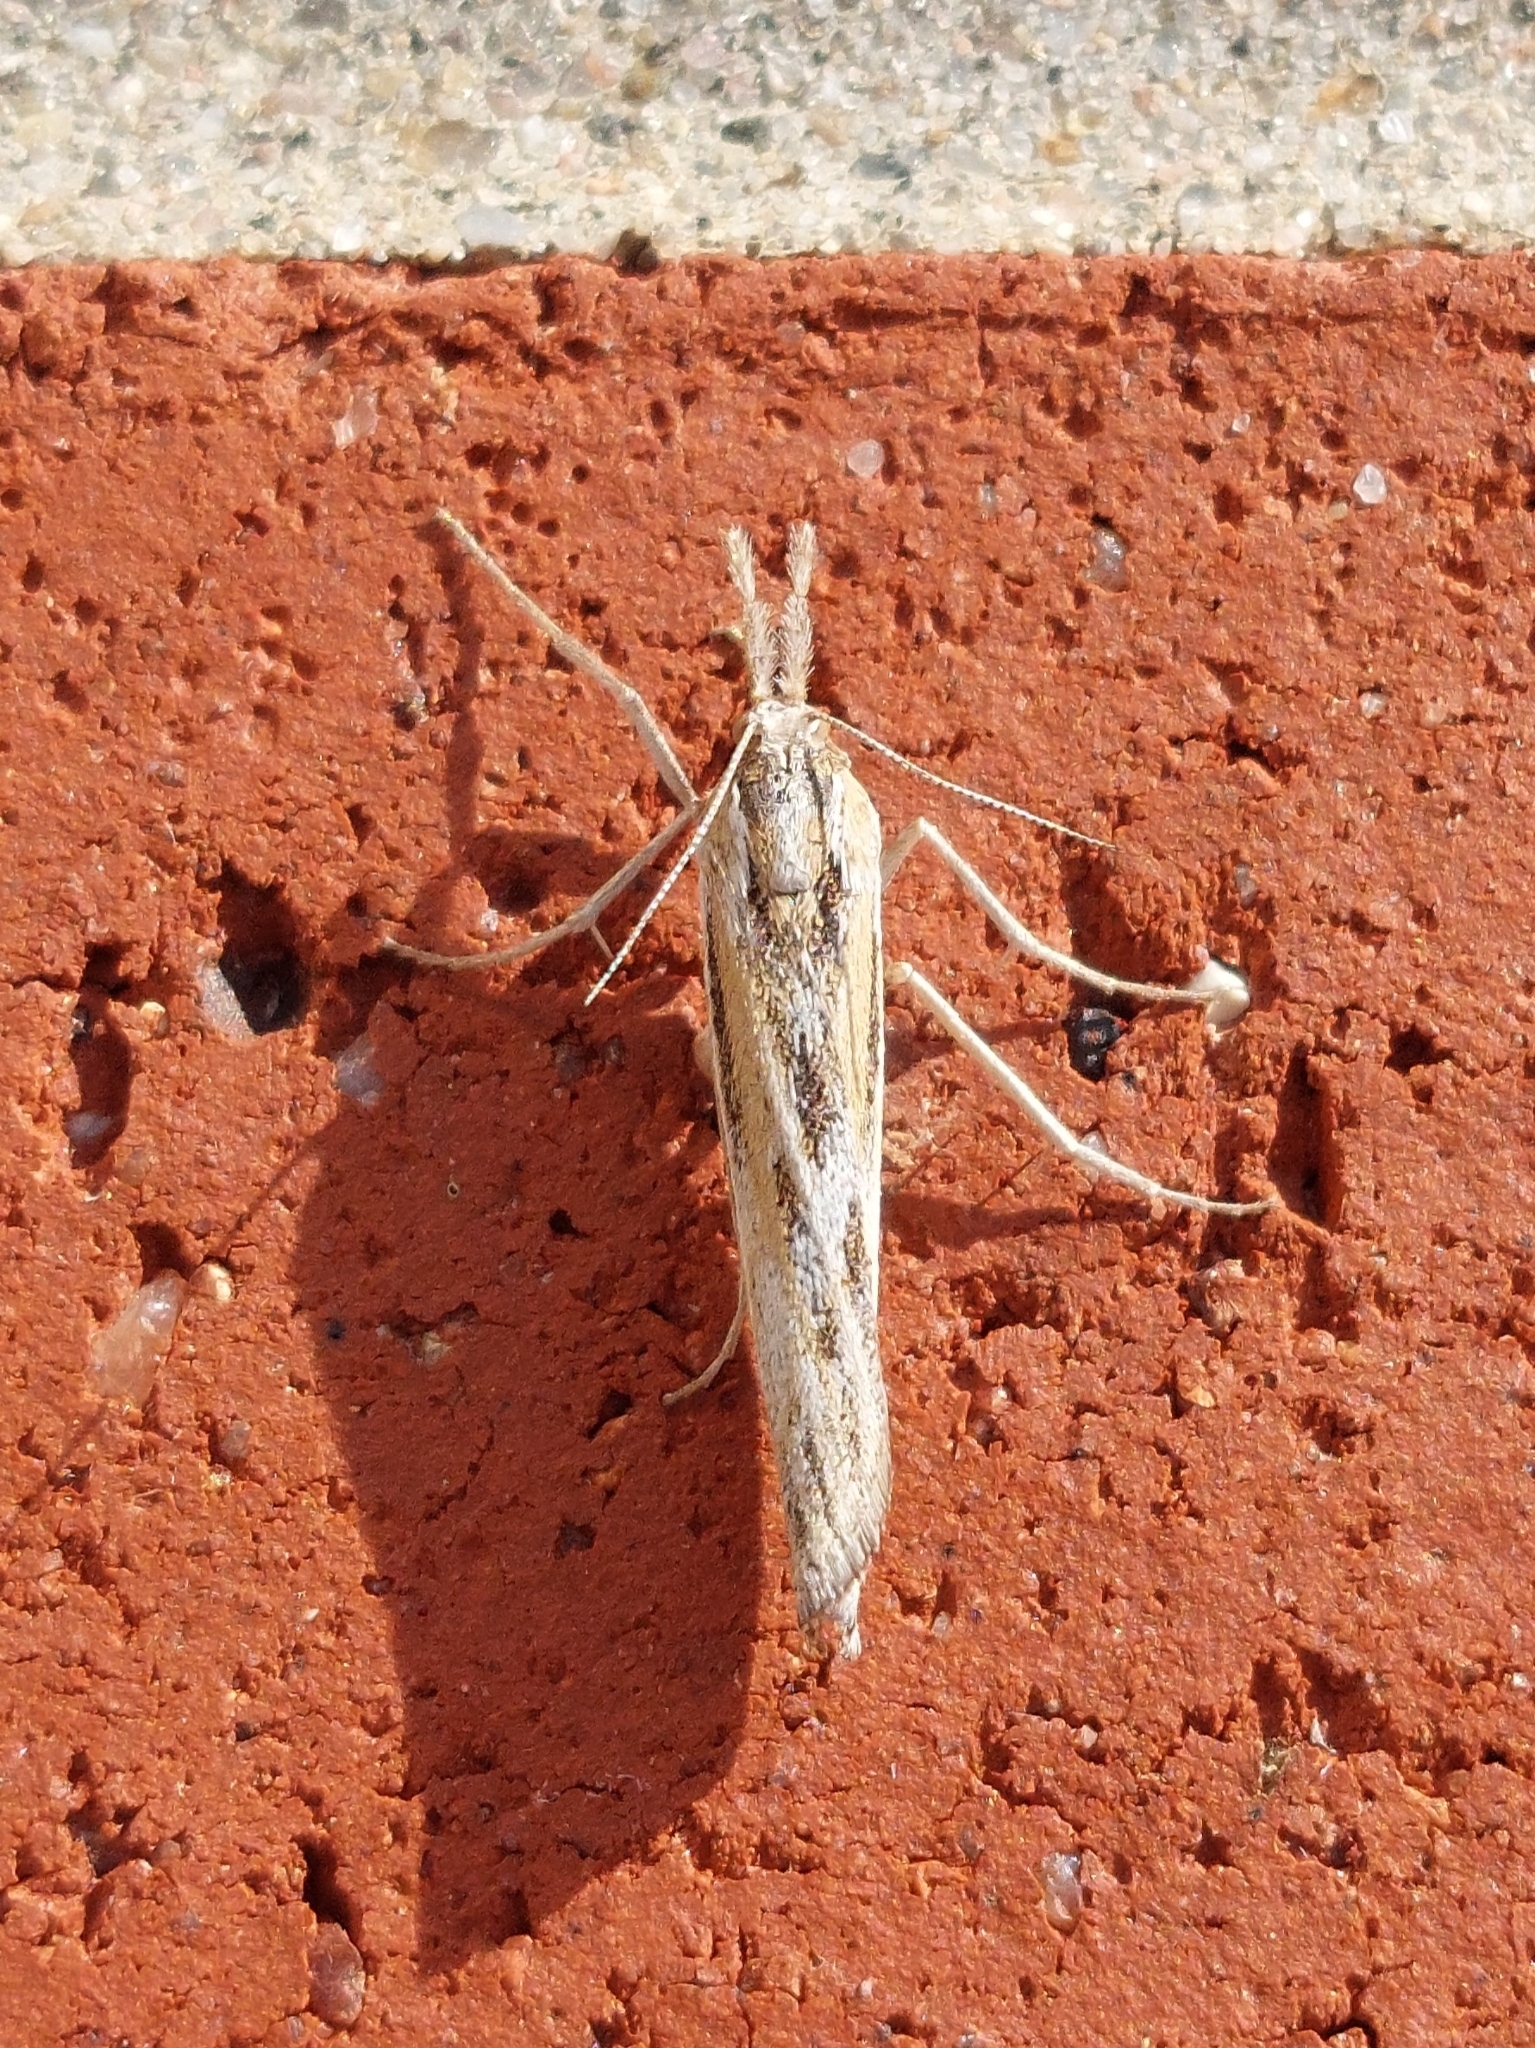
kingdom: Animalia
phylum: Arthropoda
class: Insecta
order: Lepidoptera
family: Crambidae
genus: Thaumatopsis
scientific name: Thaumatopsis pexellus
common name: Woolly grass-veneer moth
